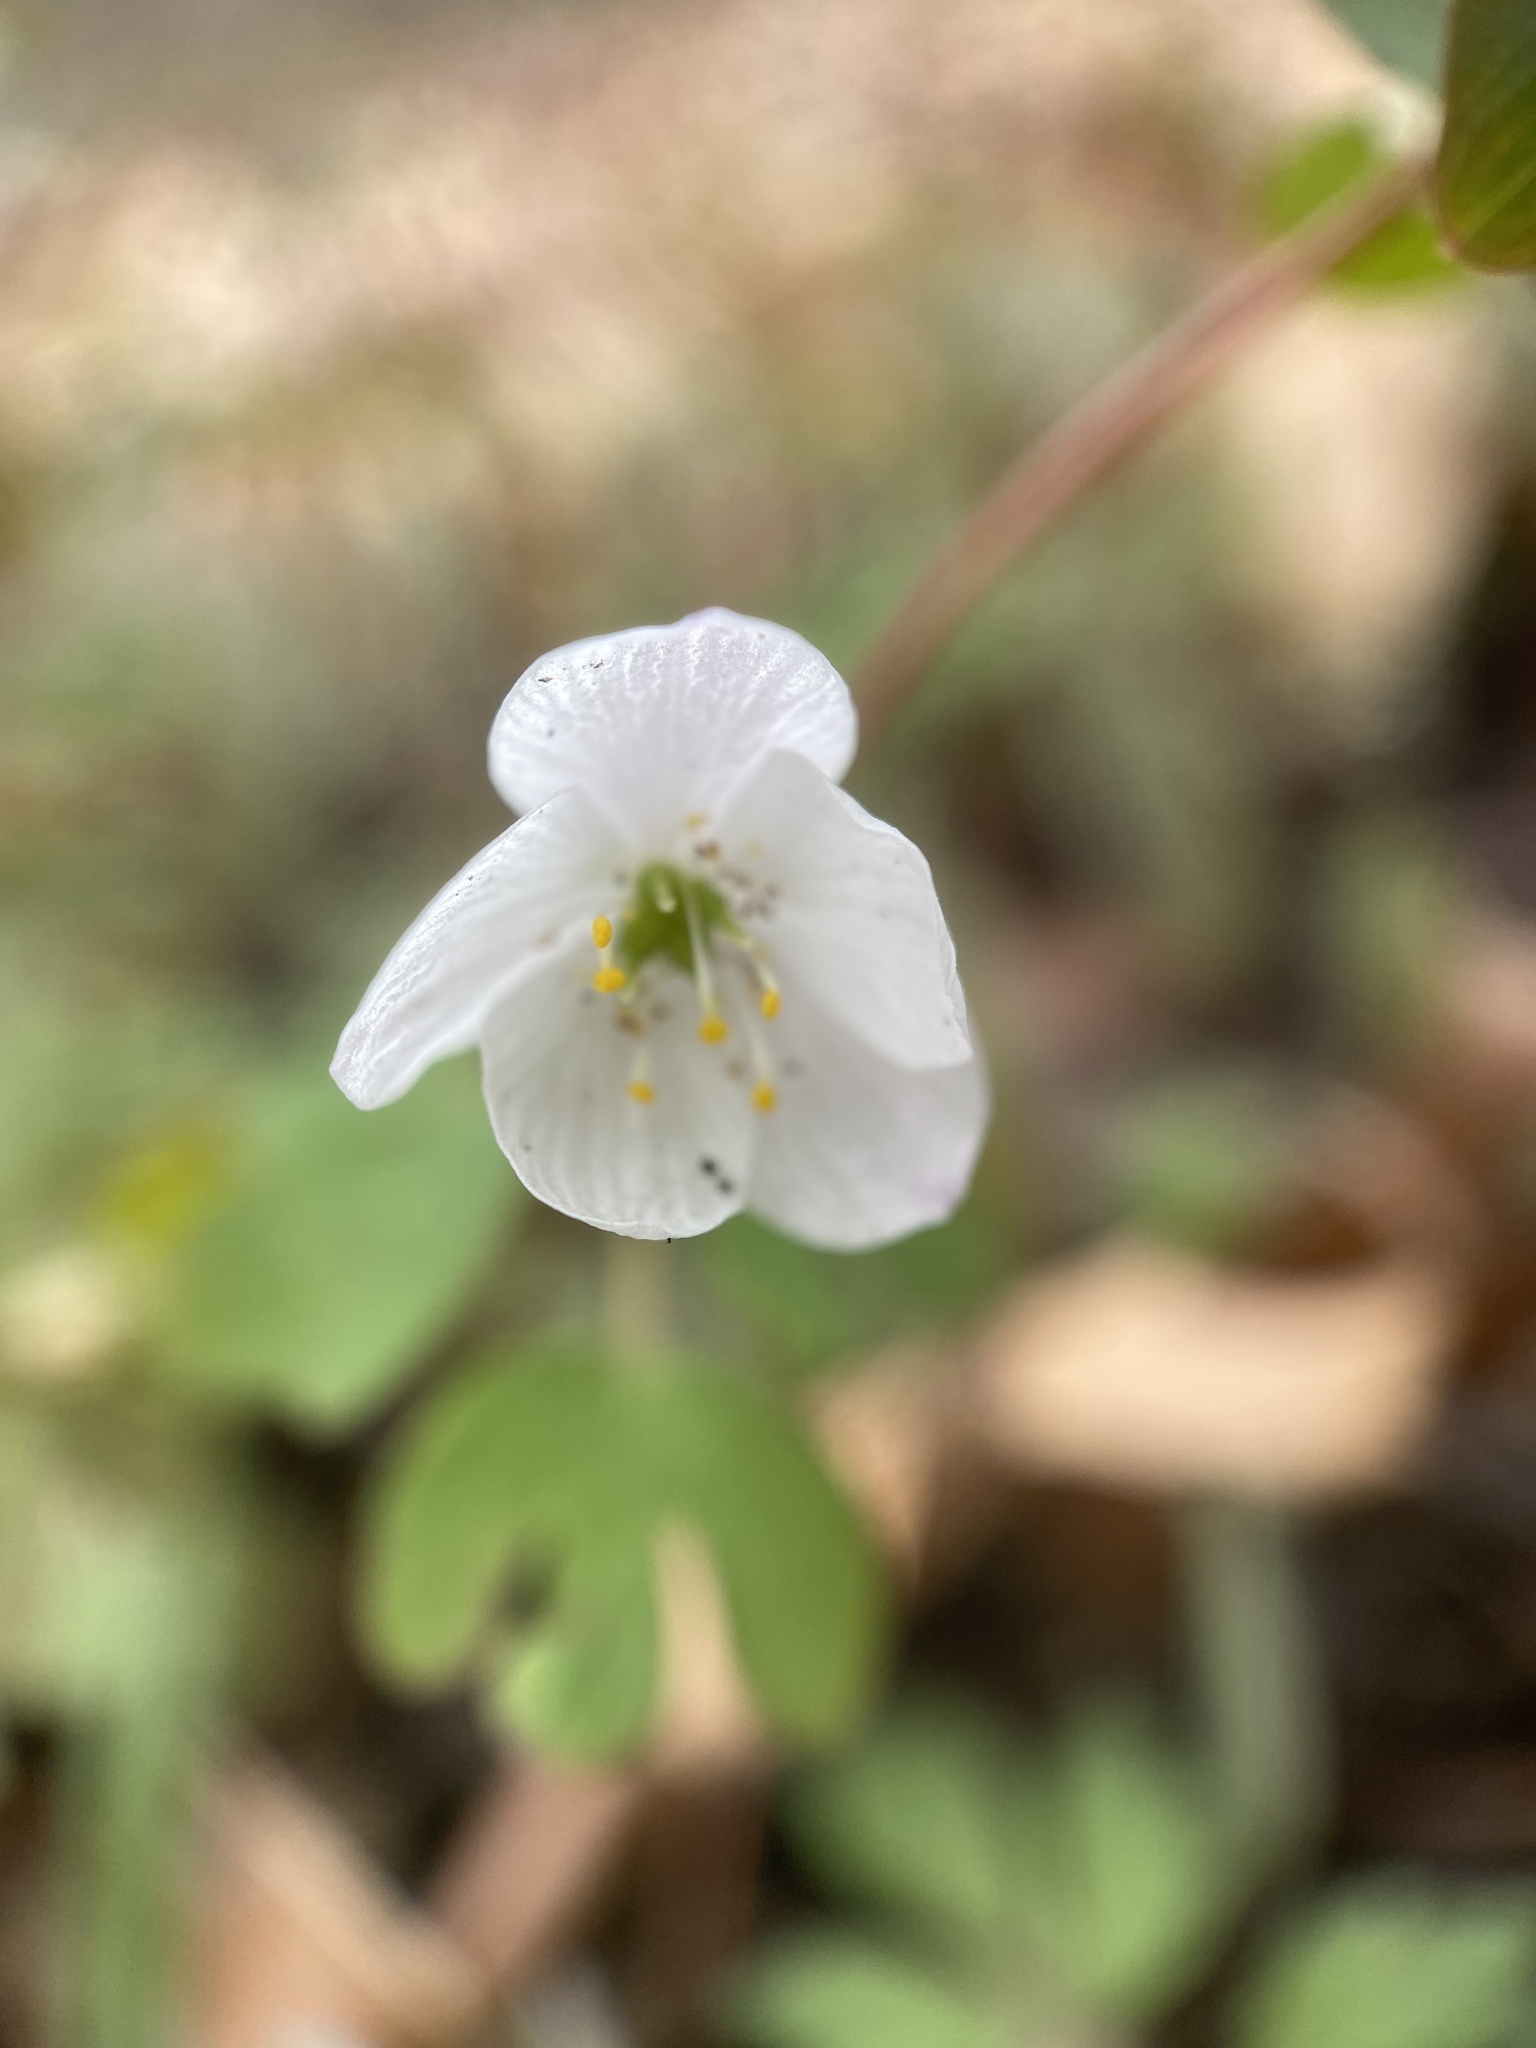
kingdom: Plantae
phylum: Tracheophyta
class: Magnoliopsida
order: Ranunculales
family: Ranunculaceae
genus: Enemion
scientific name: Enemion biternatum
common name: Eastern false rue-anemone
